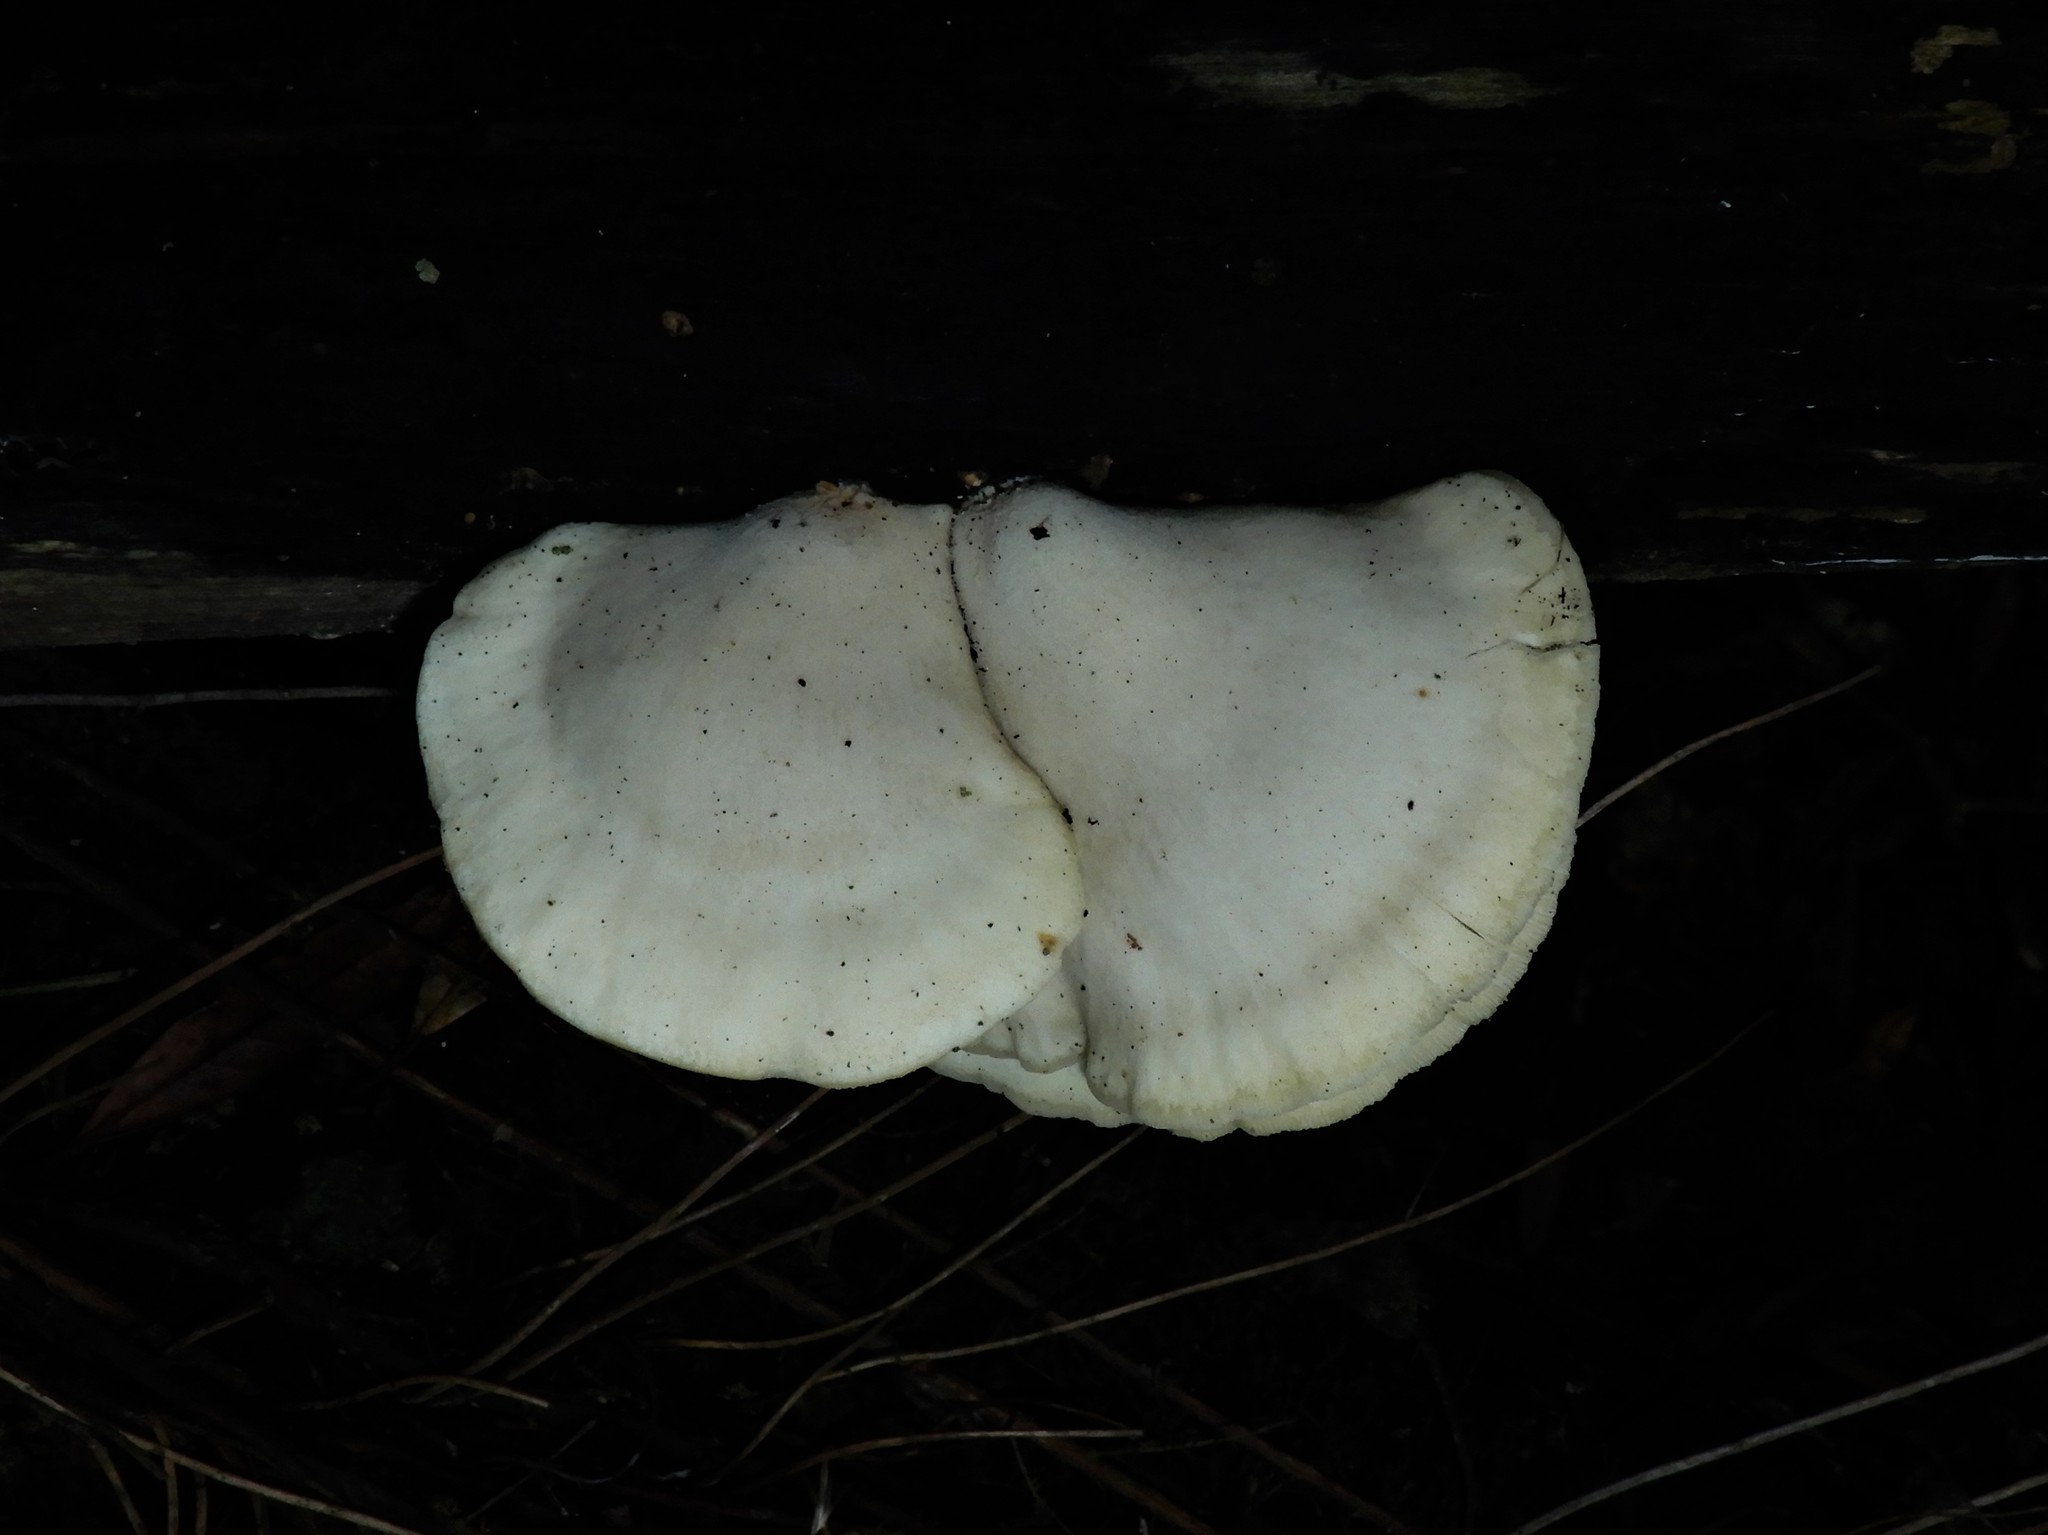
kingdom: Fungi
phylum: Basidiomycota
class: Agaricomycetes
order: Agaricales
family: Tricholomataceae
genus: Conchomyces
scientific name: Conchomyces bursiformis
